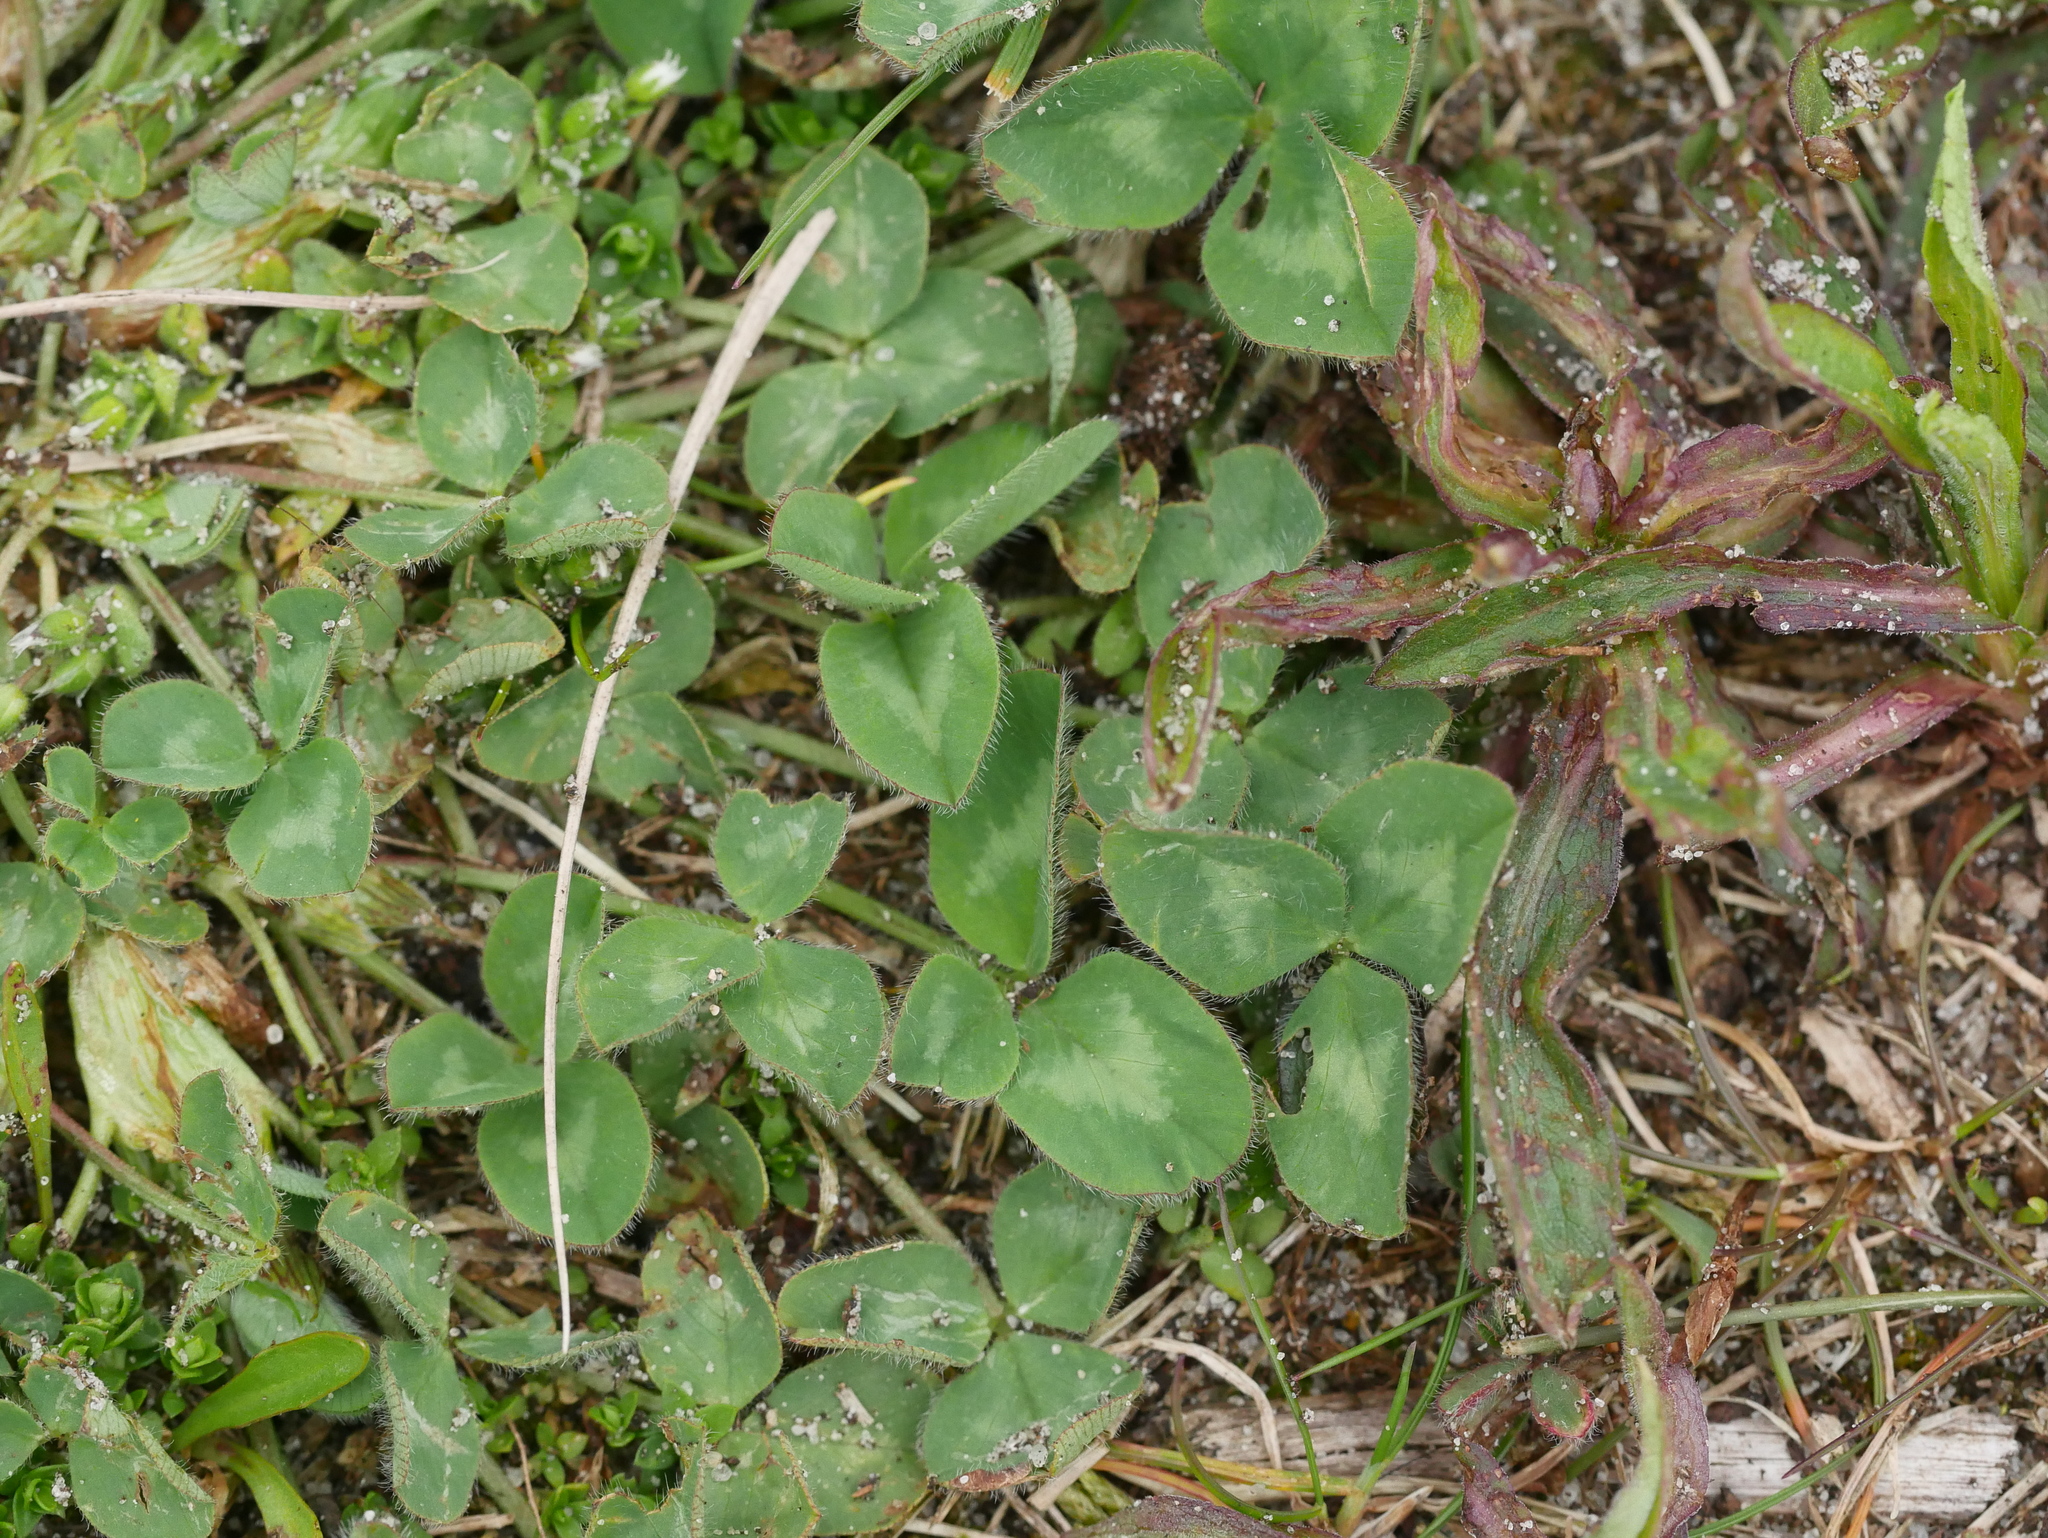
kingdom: Plantae
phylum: Tracheophyta
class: Magnoliopsida
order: Fabales
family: Fabaceae
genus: Trifolium
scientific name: Trifolium repens
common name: White clover
